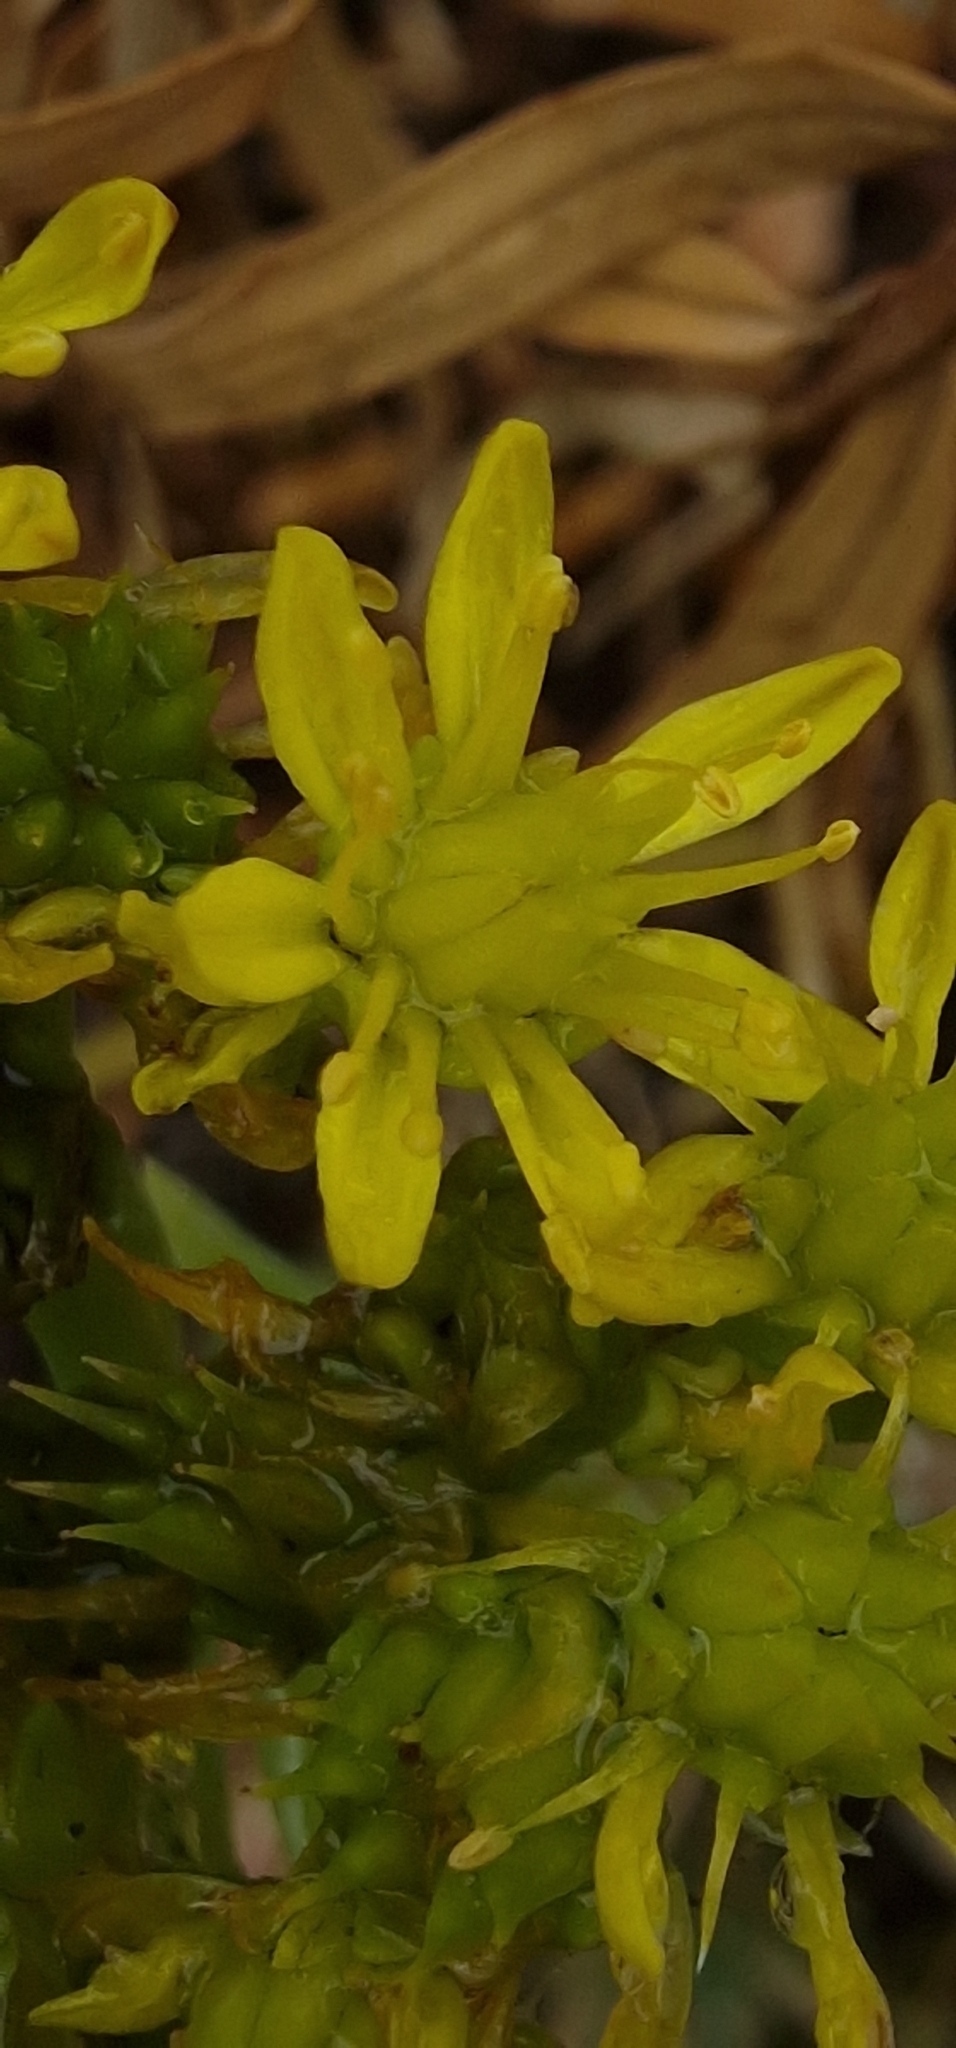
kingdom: Plantae
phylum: Tracheophyta
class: Magnoliopsida
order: Saxifragales
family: Crassulaceae
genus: Petrosedum
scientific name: Petrosedum rupestre
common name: Jenny's stonecrop
